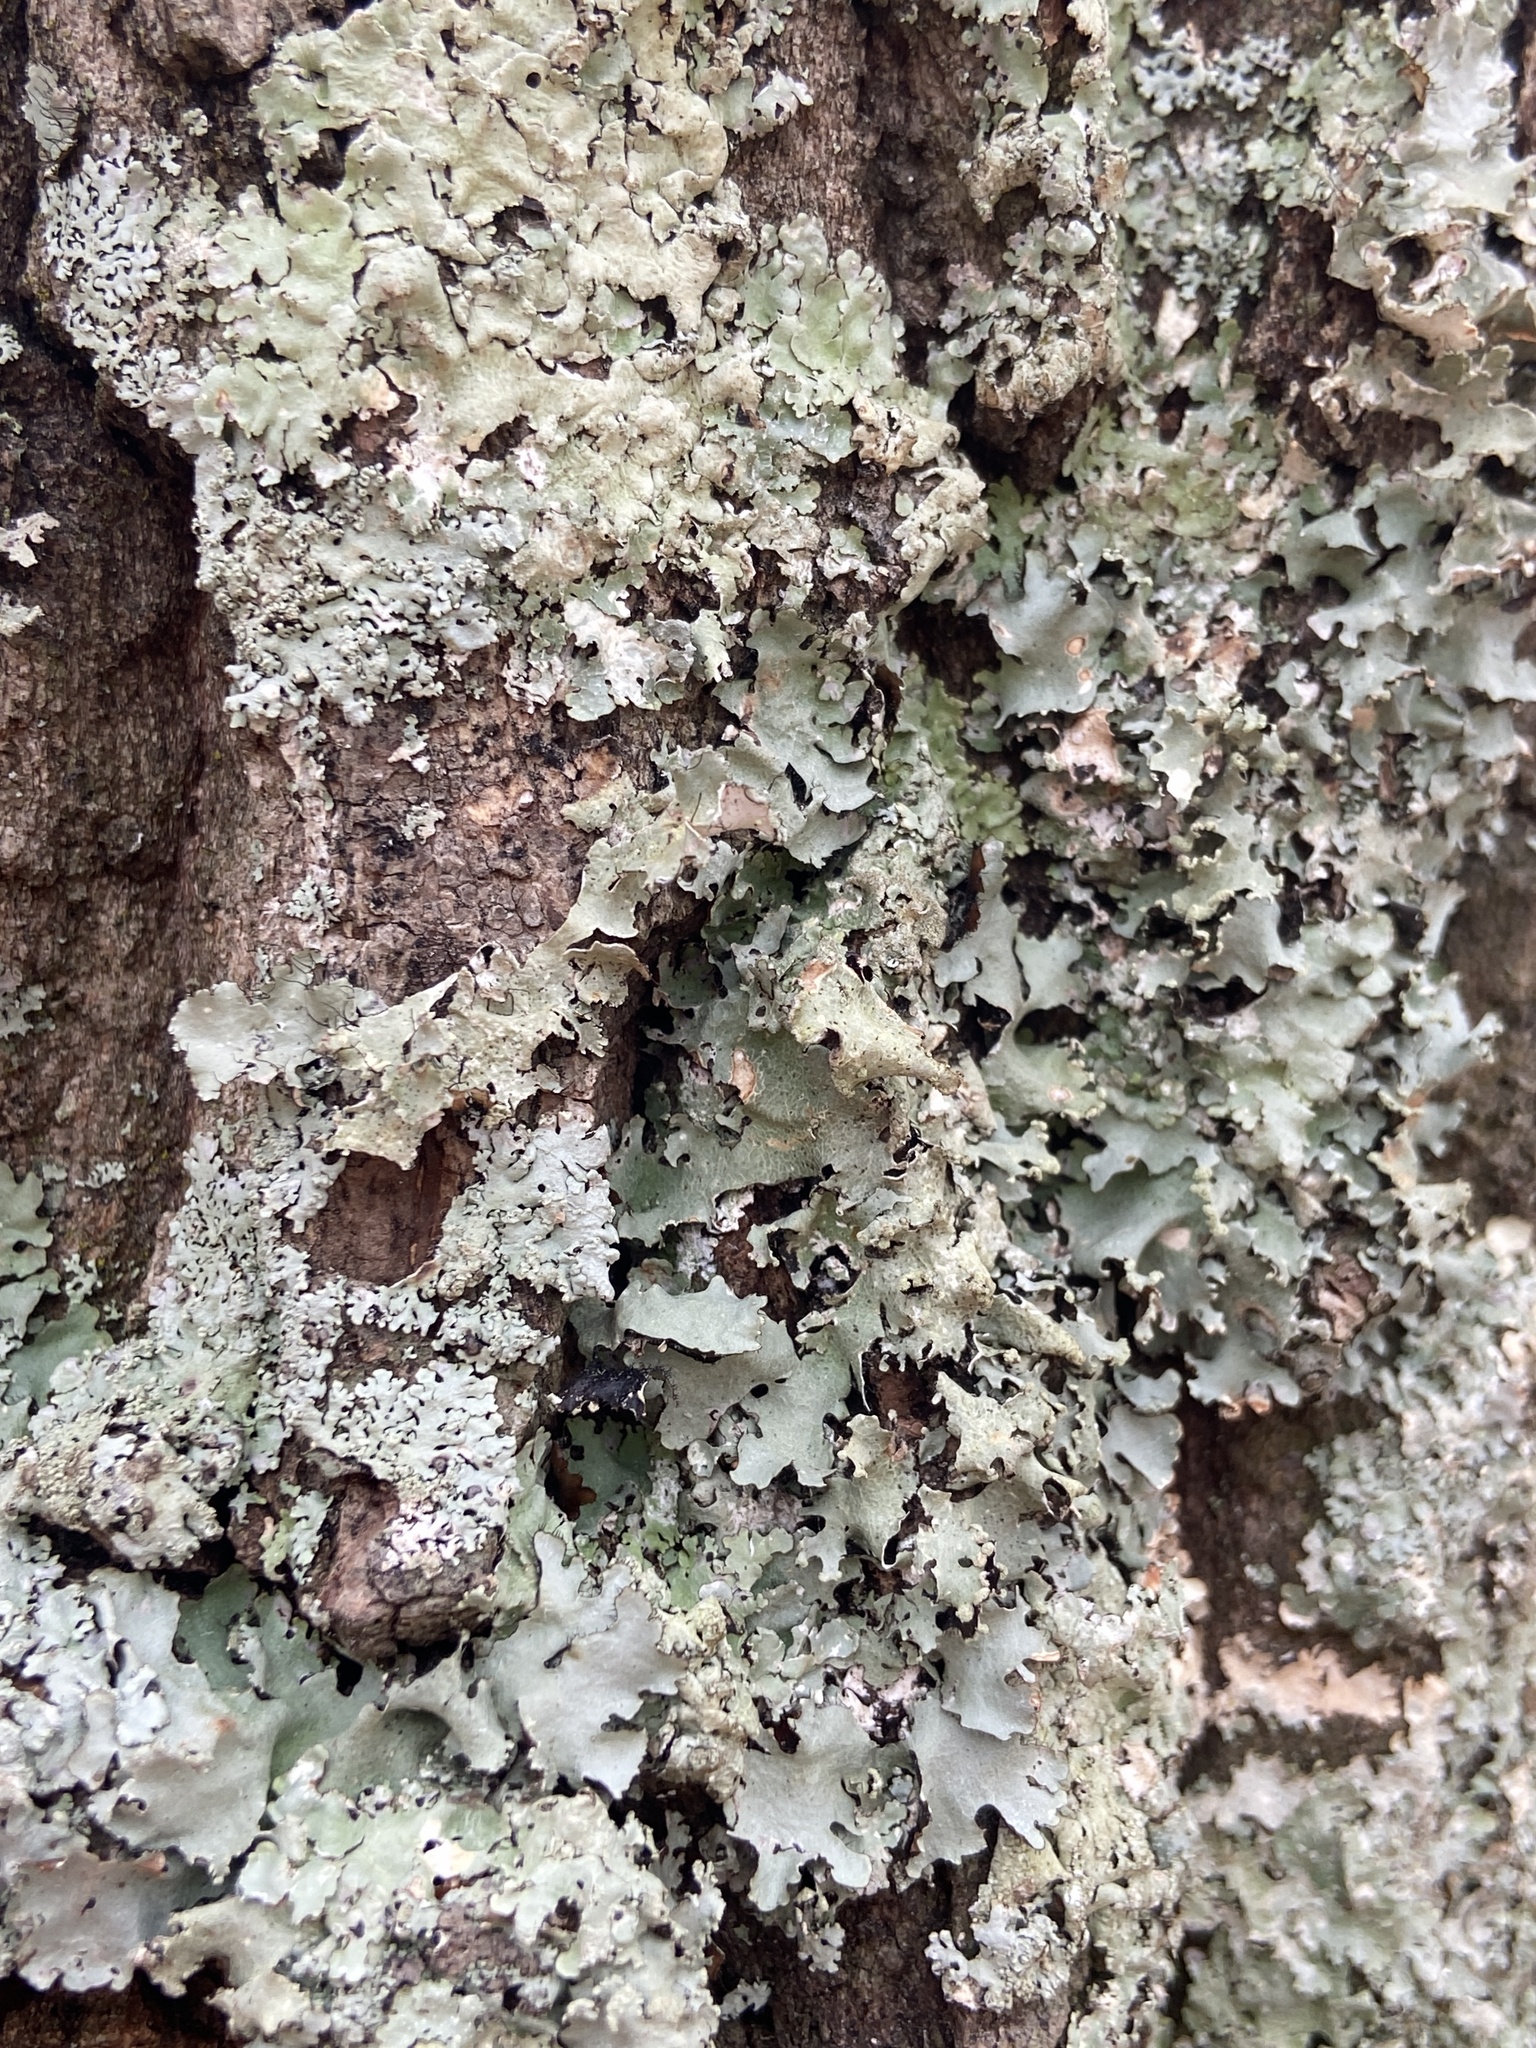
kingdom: Fungi
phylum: Ascomycota
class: Lecanoromycetes
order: Lecanorales
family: Parmeliaceae
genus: Parmotrema
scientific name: Parmotrema reticulatum
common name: Black sheet lichen
